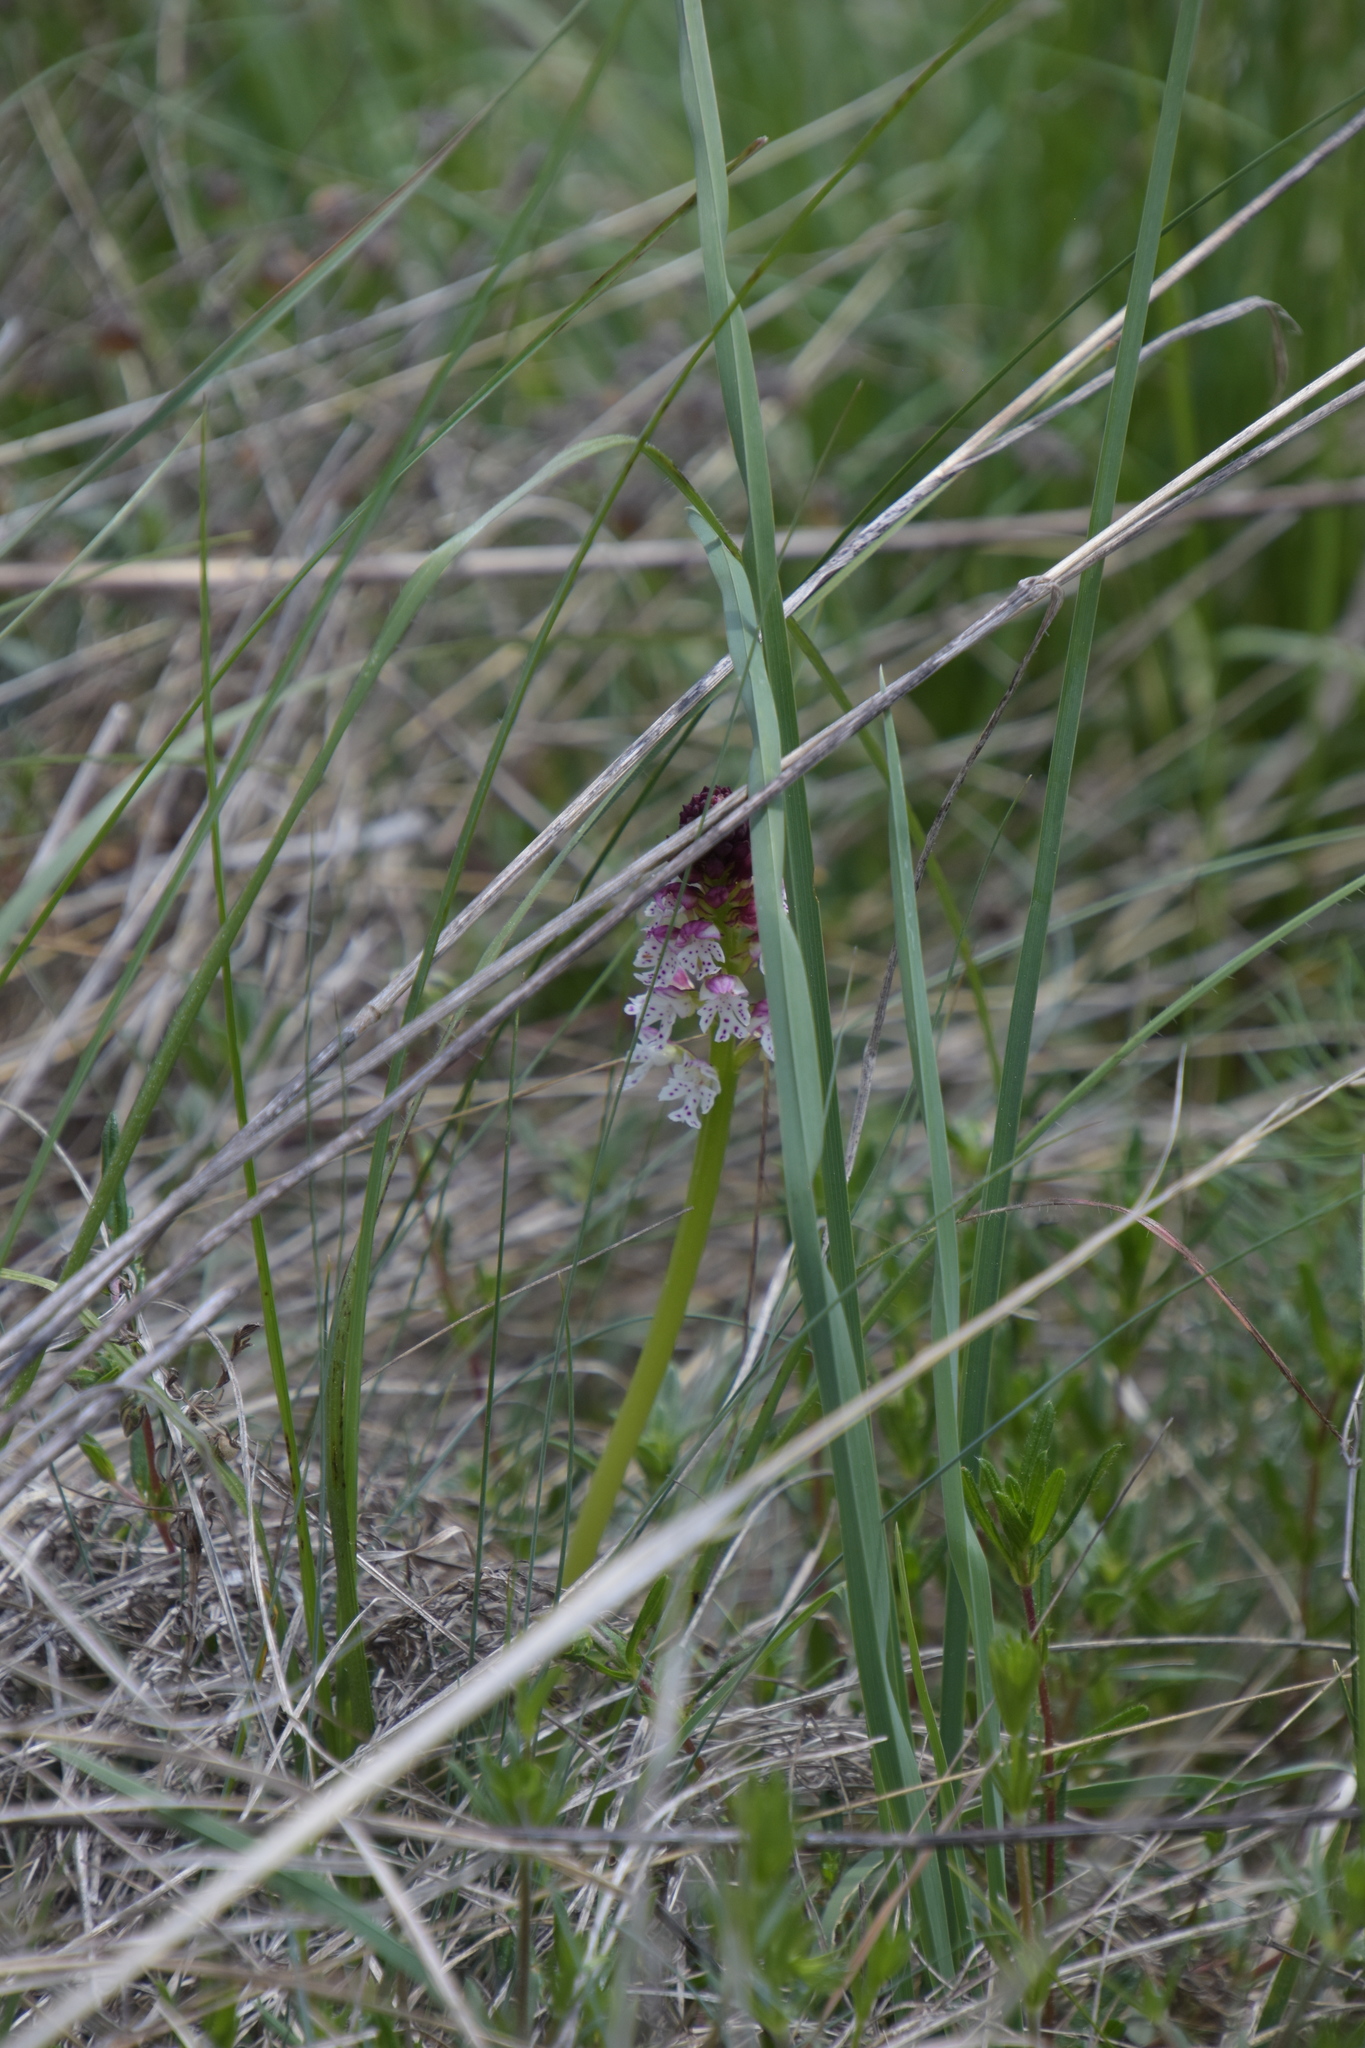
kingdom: Plantae
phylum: Tracheophyta
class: Liliopsida
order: Asparagales
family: Orchidaceae
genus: Neotinea
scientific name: Neotinea ustulata
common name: Burnt orchid
